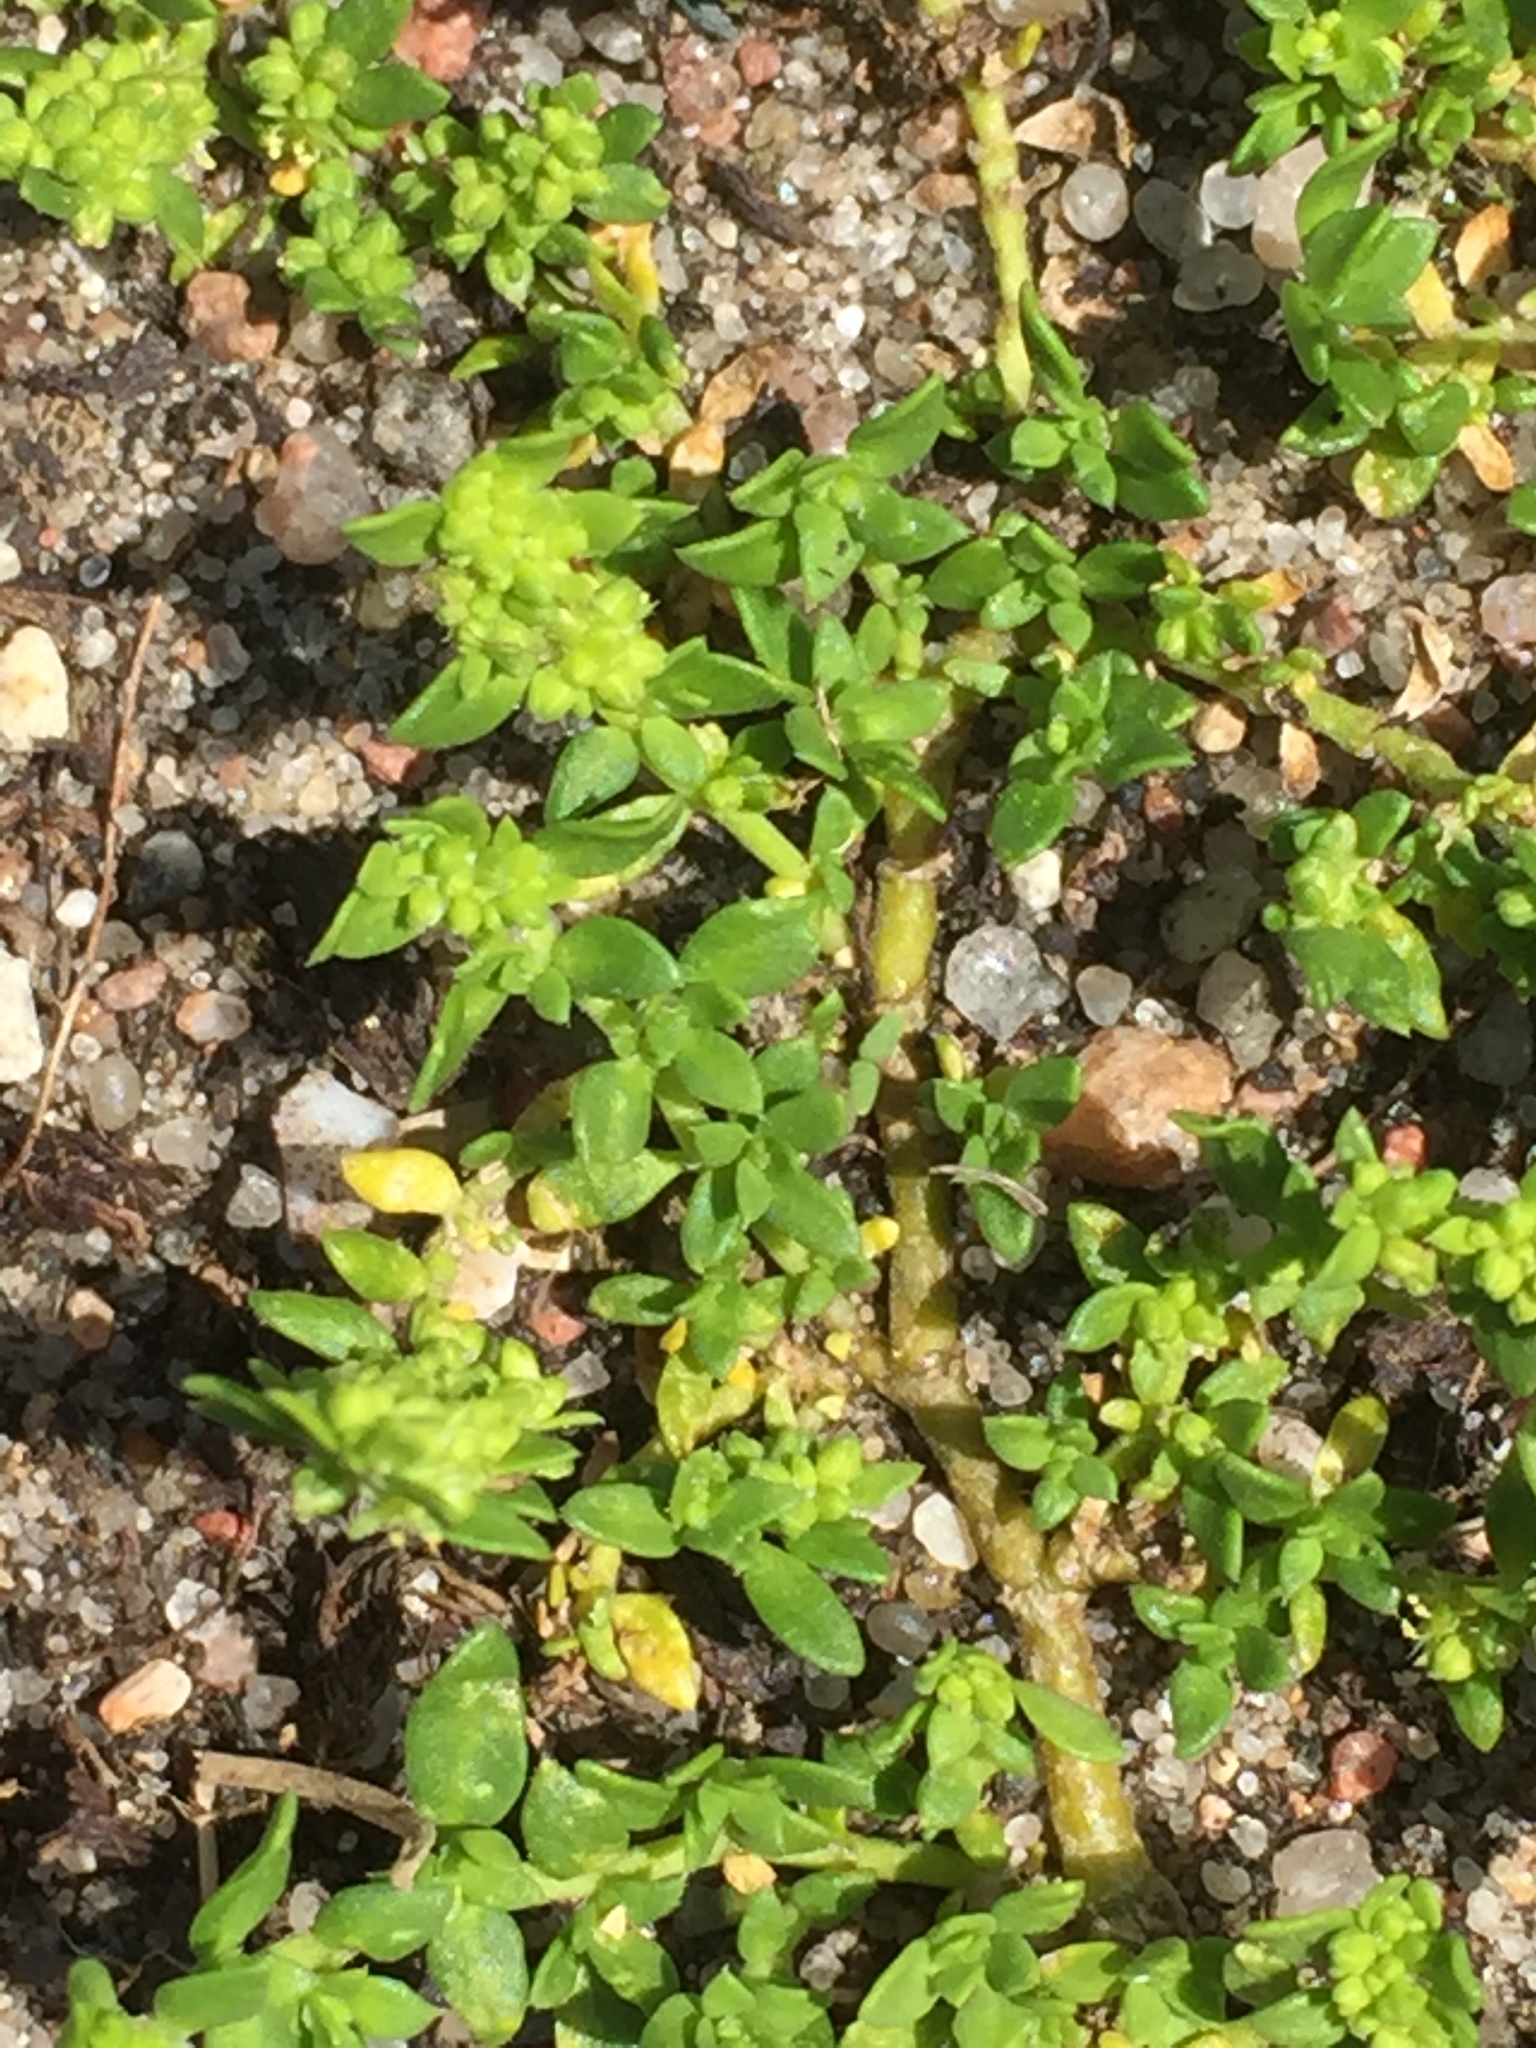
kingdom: Plantae
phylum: Tracheophyta
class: Magnoliopsida
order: Caryophyllales
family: Caryophyllaceae
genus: Herniaria
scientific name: Herniaria glabra
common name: Smooth rupturewort
